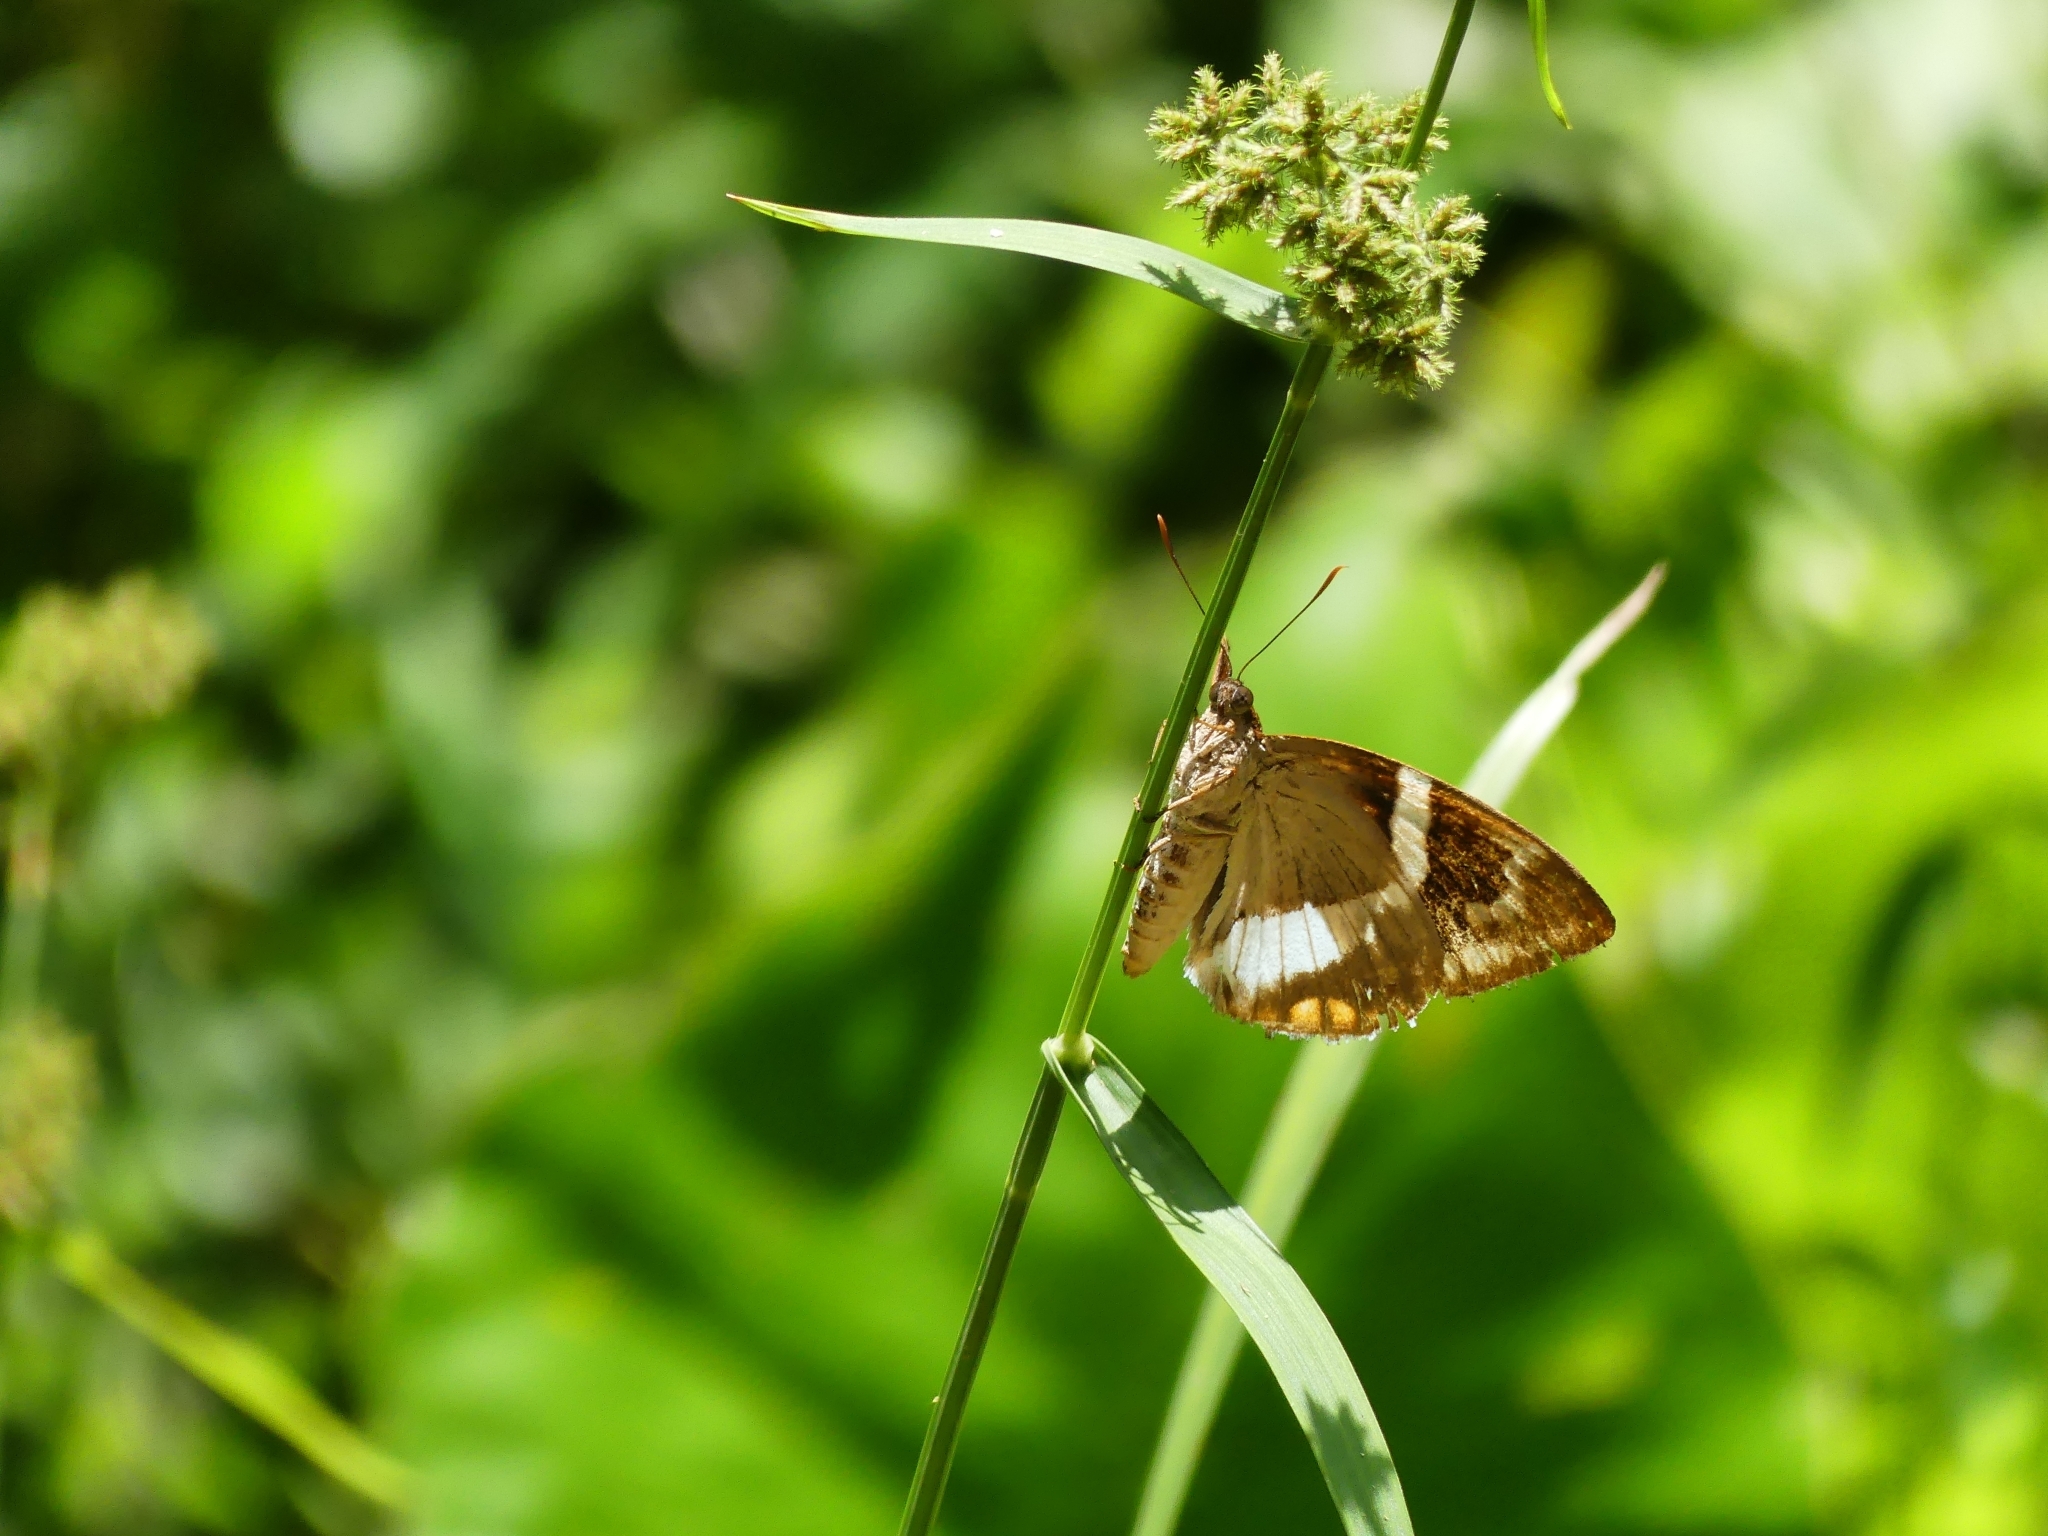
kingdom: Animalia
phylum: Arthropoda
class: Insecta
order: Lepidoptera
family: Castniidae
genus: Castnia
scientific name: Castnia licus
